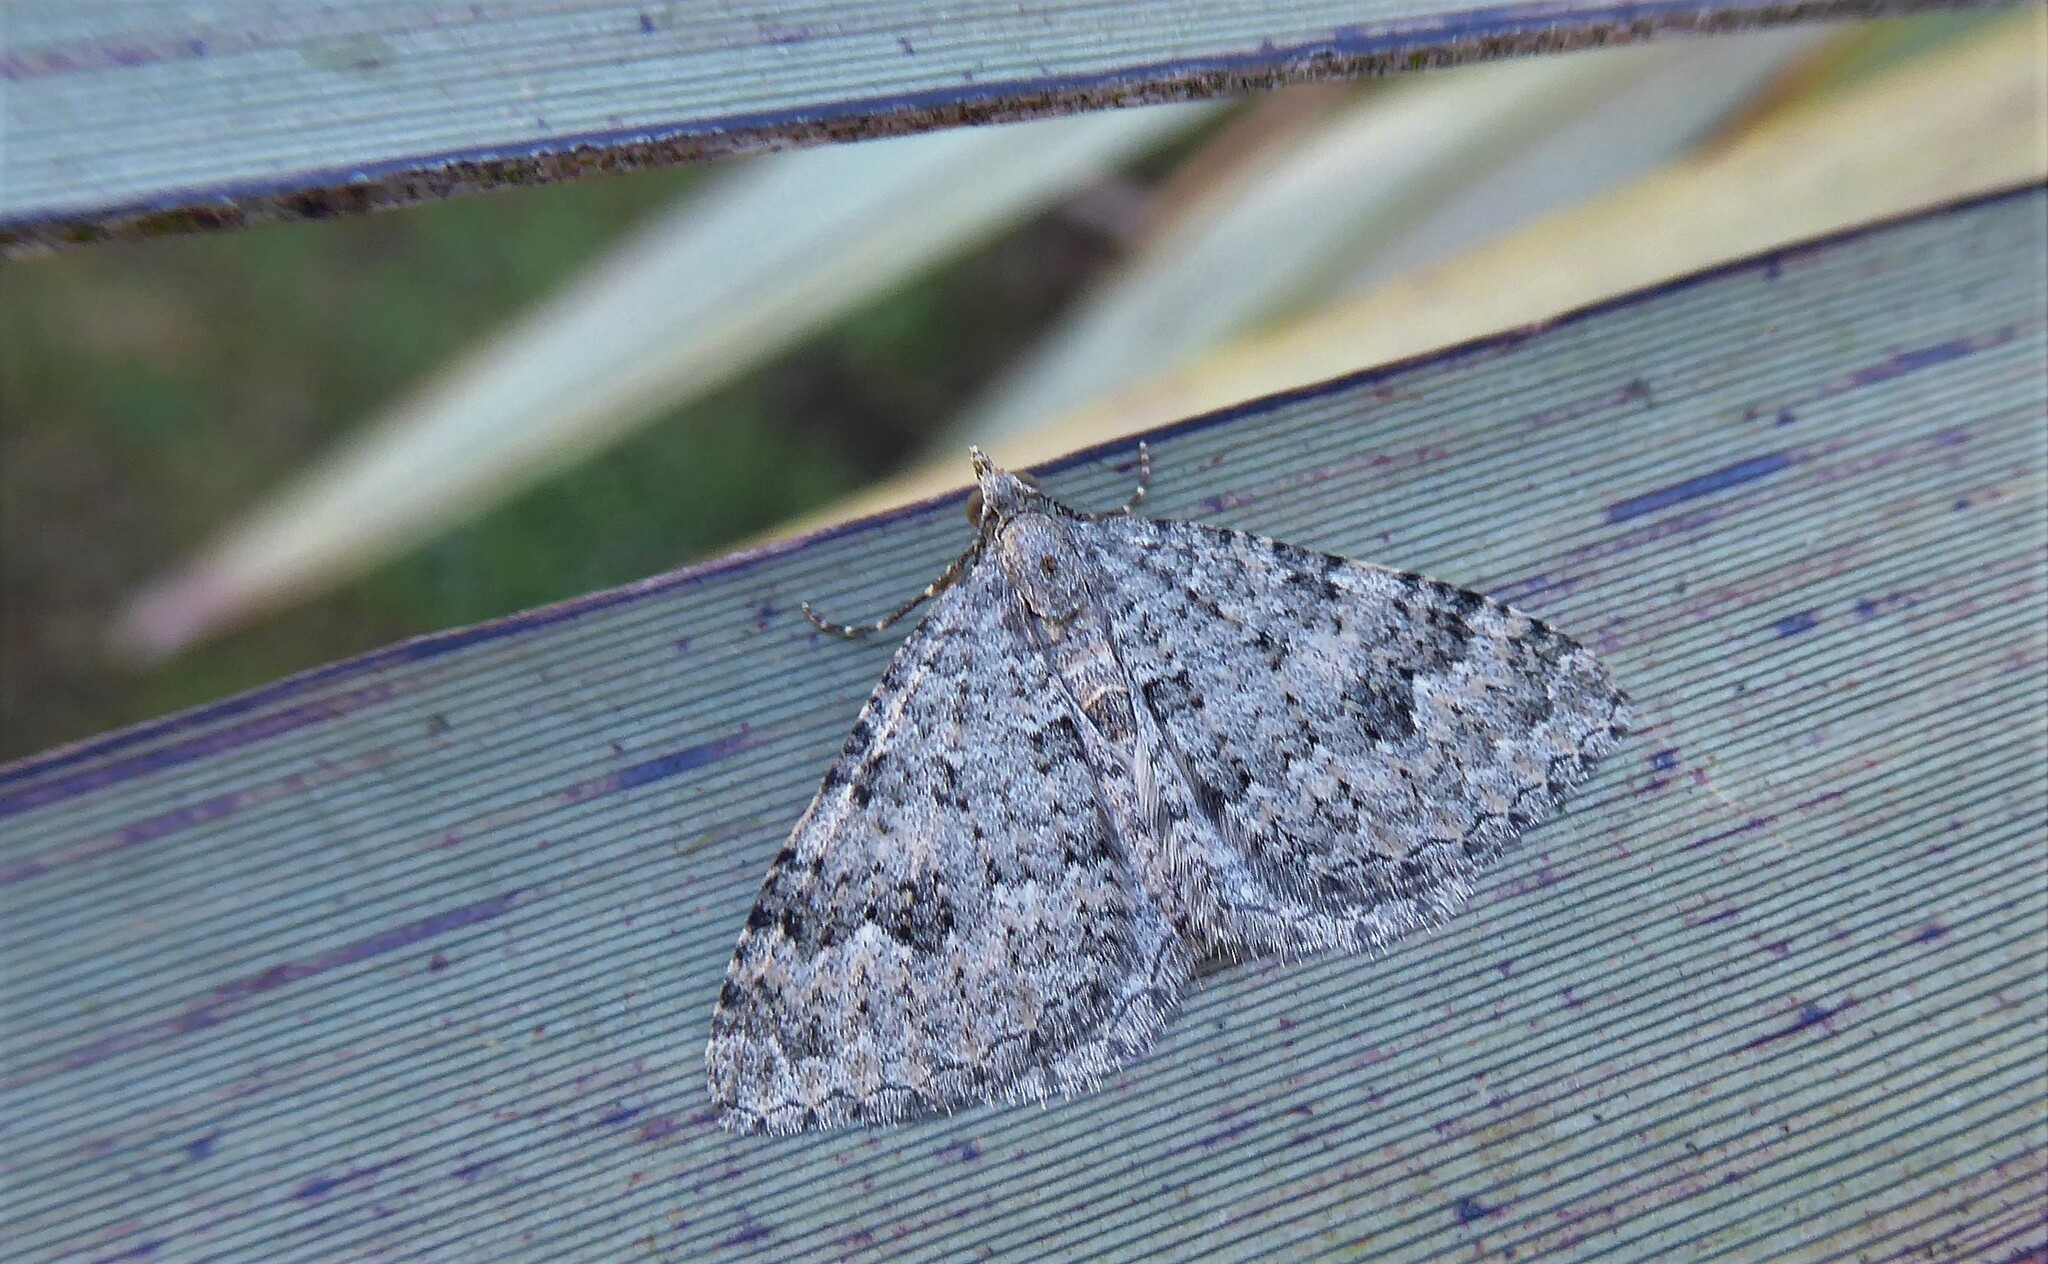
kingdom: Animalia
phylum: Arthropoda
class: Insecta
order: Lepidoptera
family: Geometridae
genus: Helastia
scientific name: Helastia corcularia
